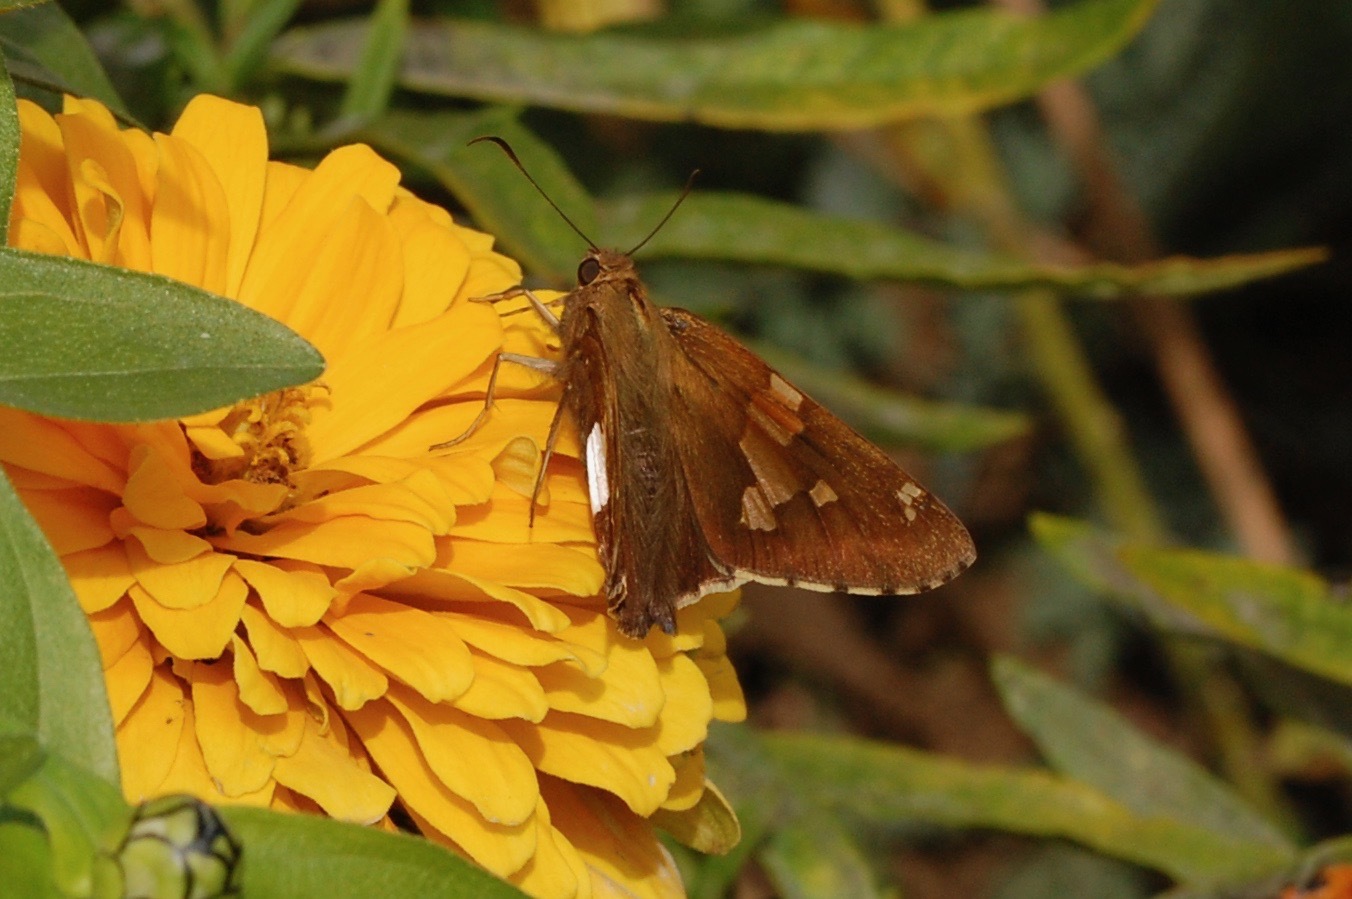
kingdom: Animalia
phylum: Arthropoda
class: Insecta
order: Lepidoptera
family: Hesperiidae
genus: Epargyreus
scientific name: Epargyreus clarus
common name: Silver-spotted skipper
